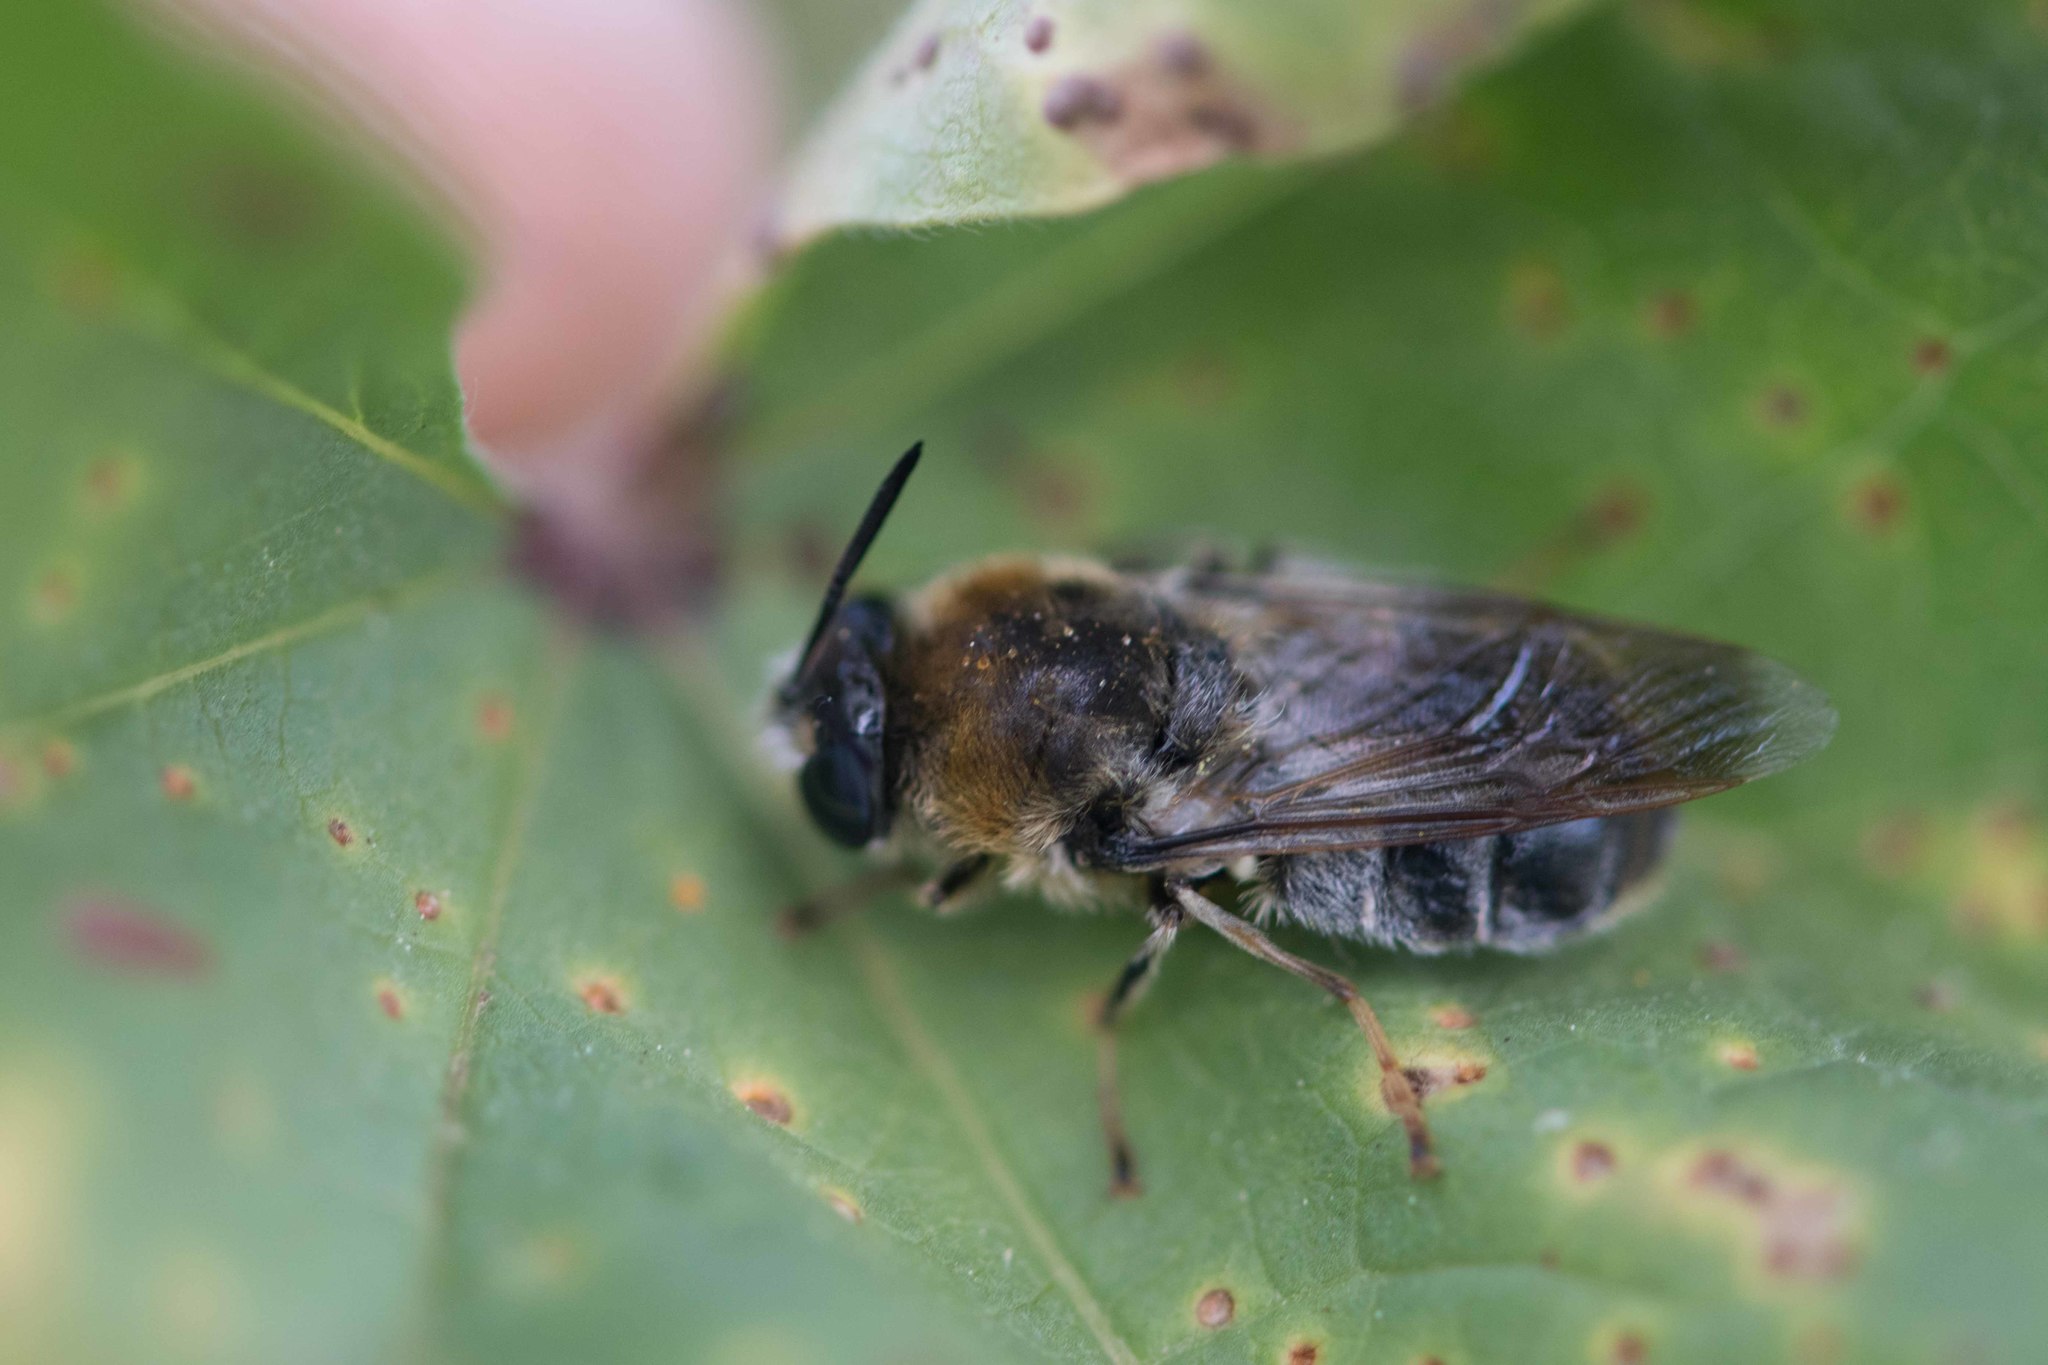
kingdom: Animalia
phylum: Arthropoda
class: Insecta
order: Diptera
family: Stratiomyidae
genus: Stratiomys
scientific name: Stratiomys longicornis
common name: Long-horned general
